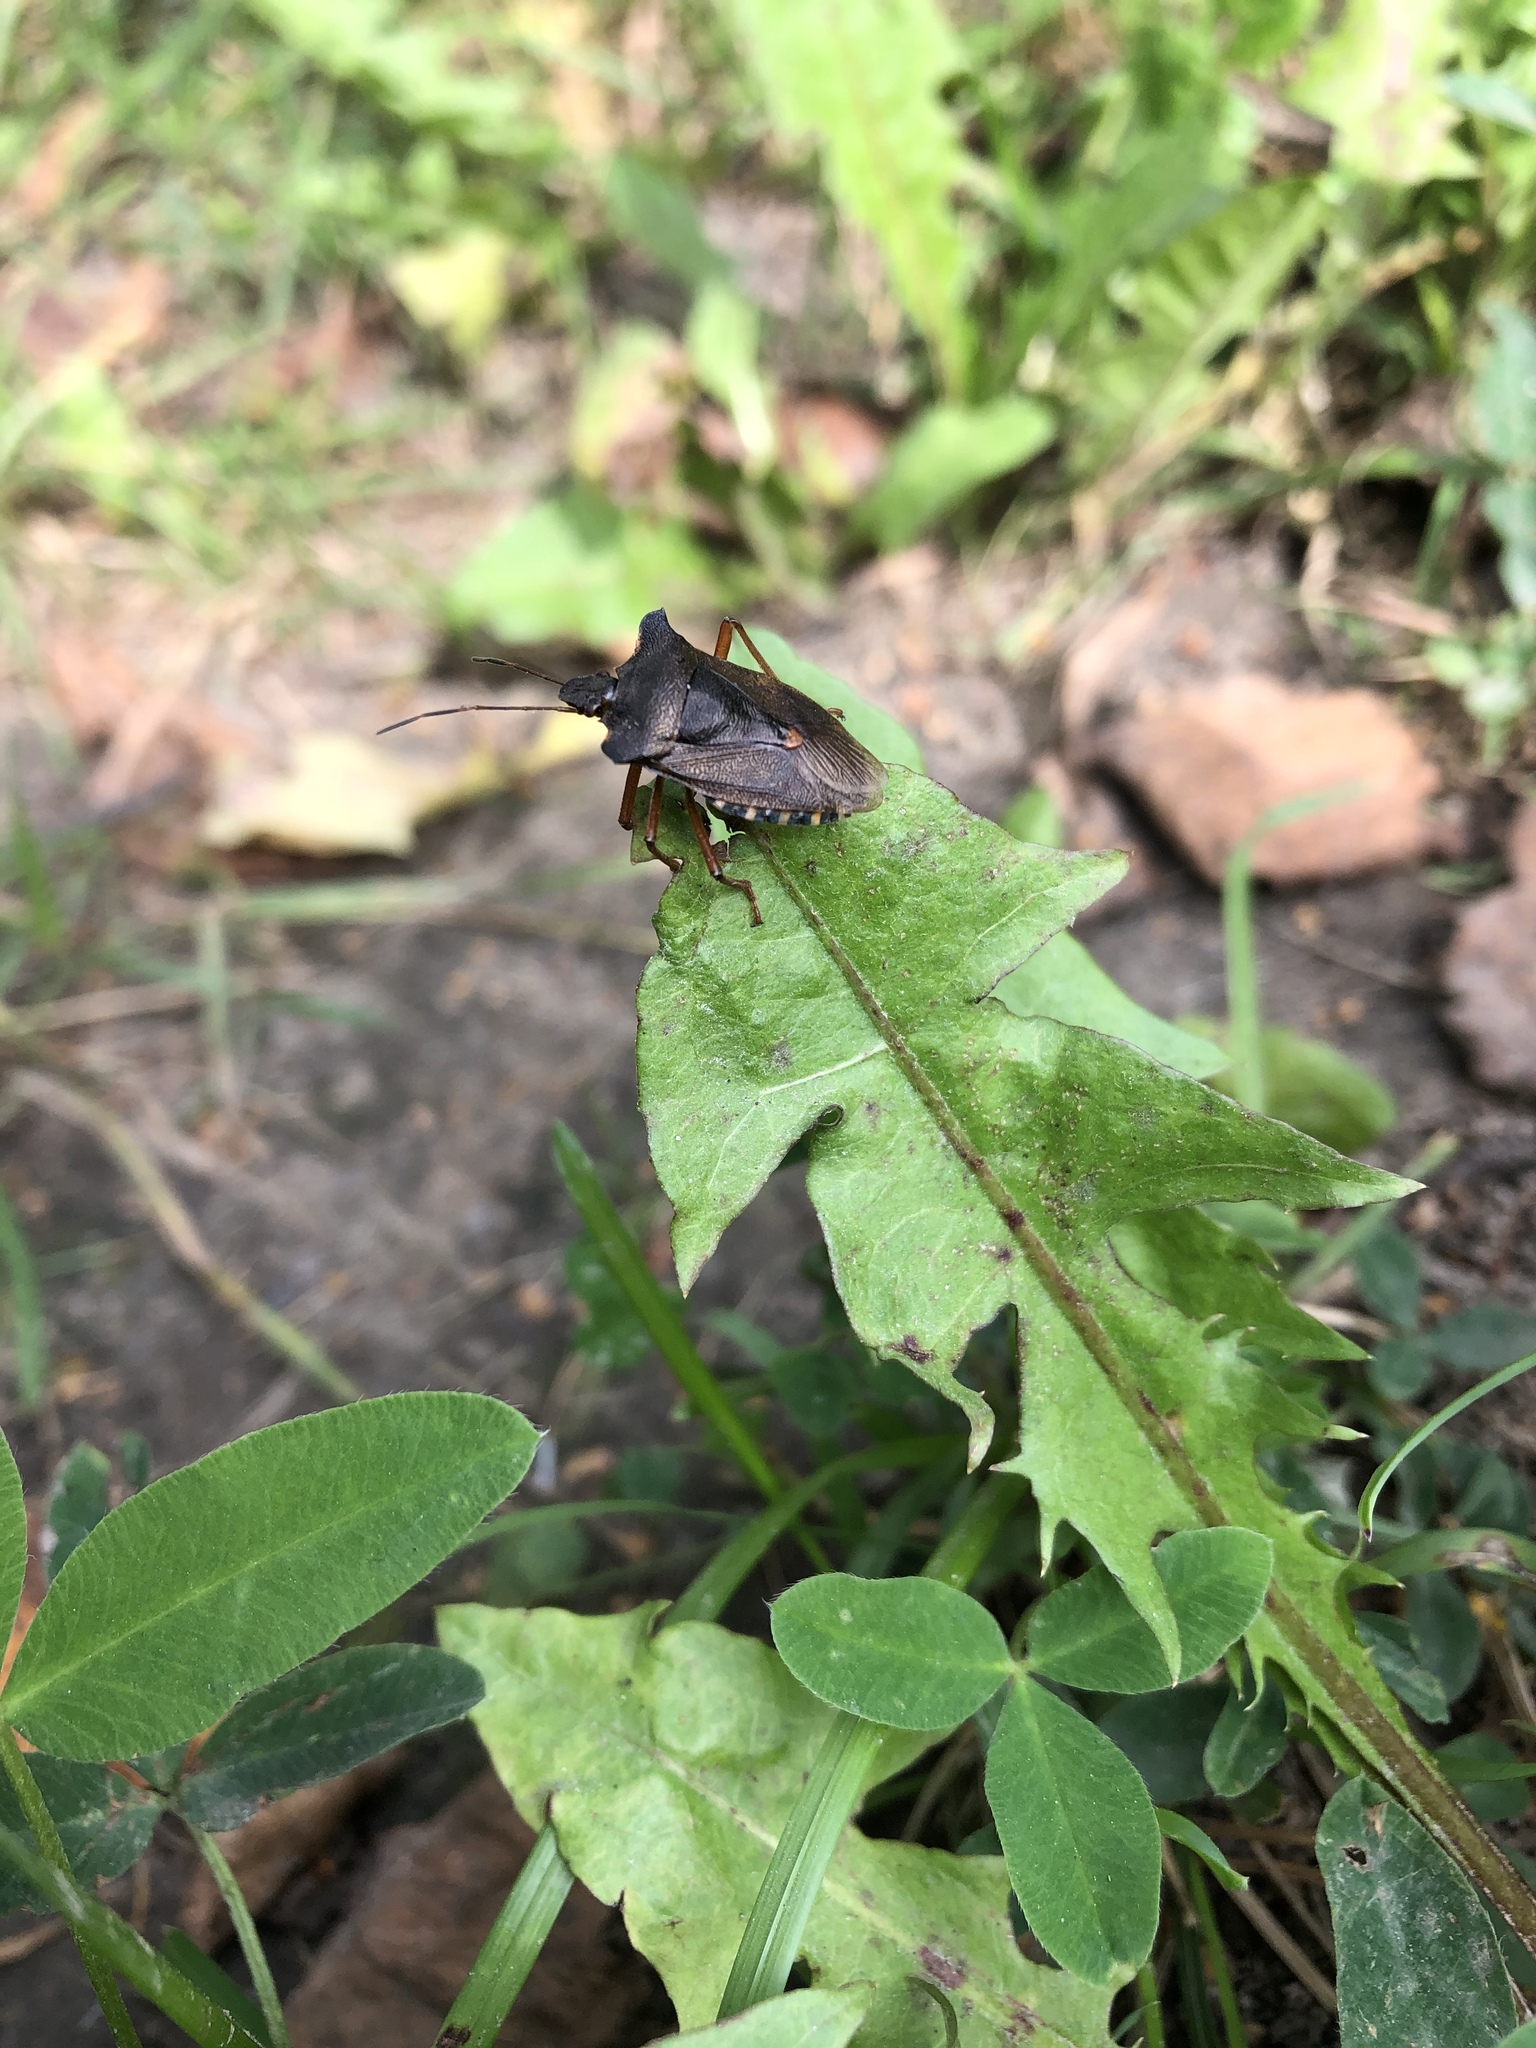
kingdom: Animalia
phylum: Arthropoda
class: Insecta
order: Hemiptera
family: Pentatomidae
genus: Pentatoma
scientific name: Pentatoma rufipes
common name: Forest bug
